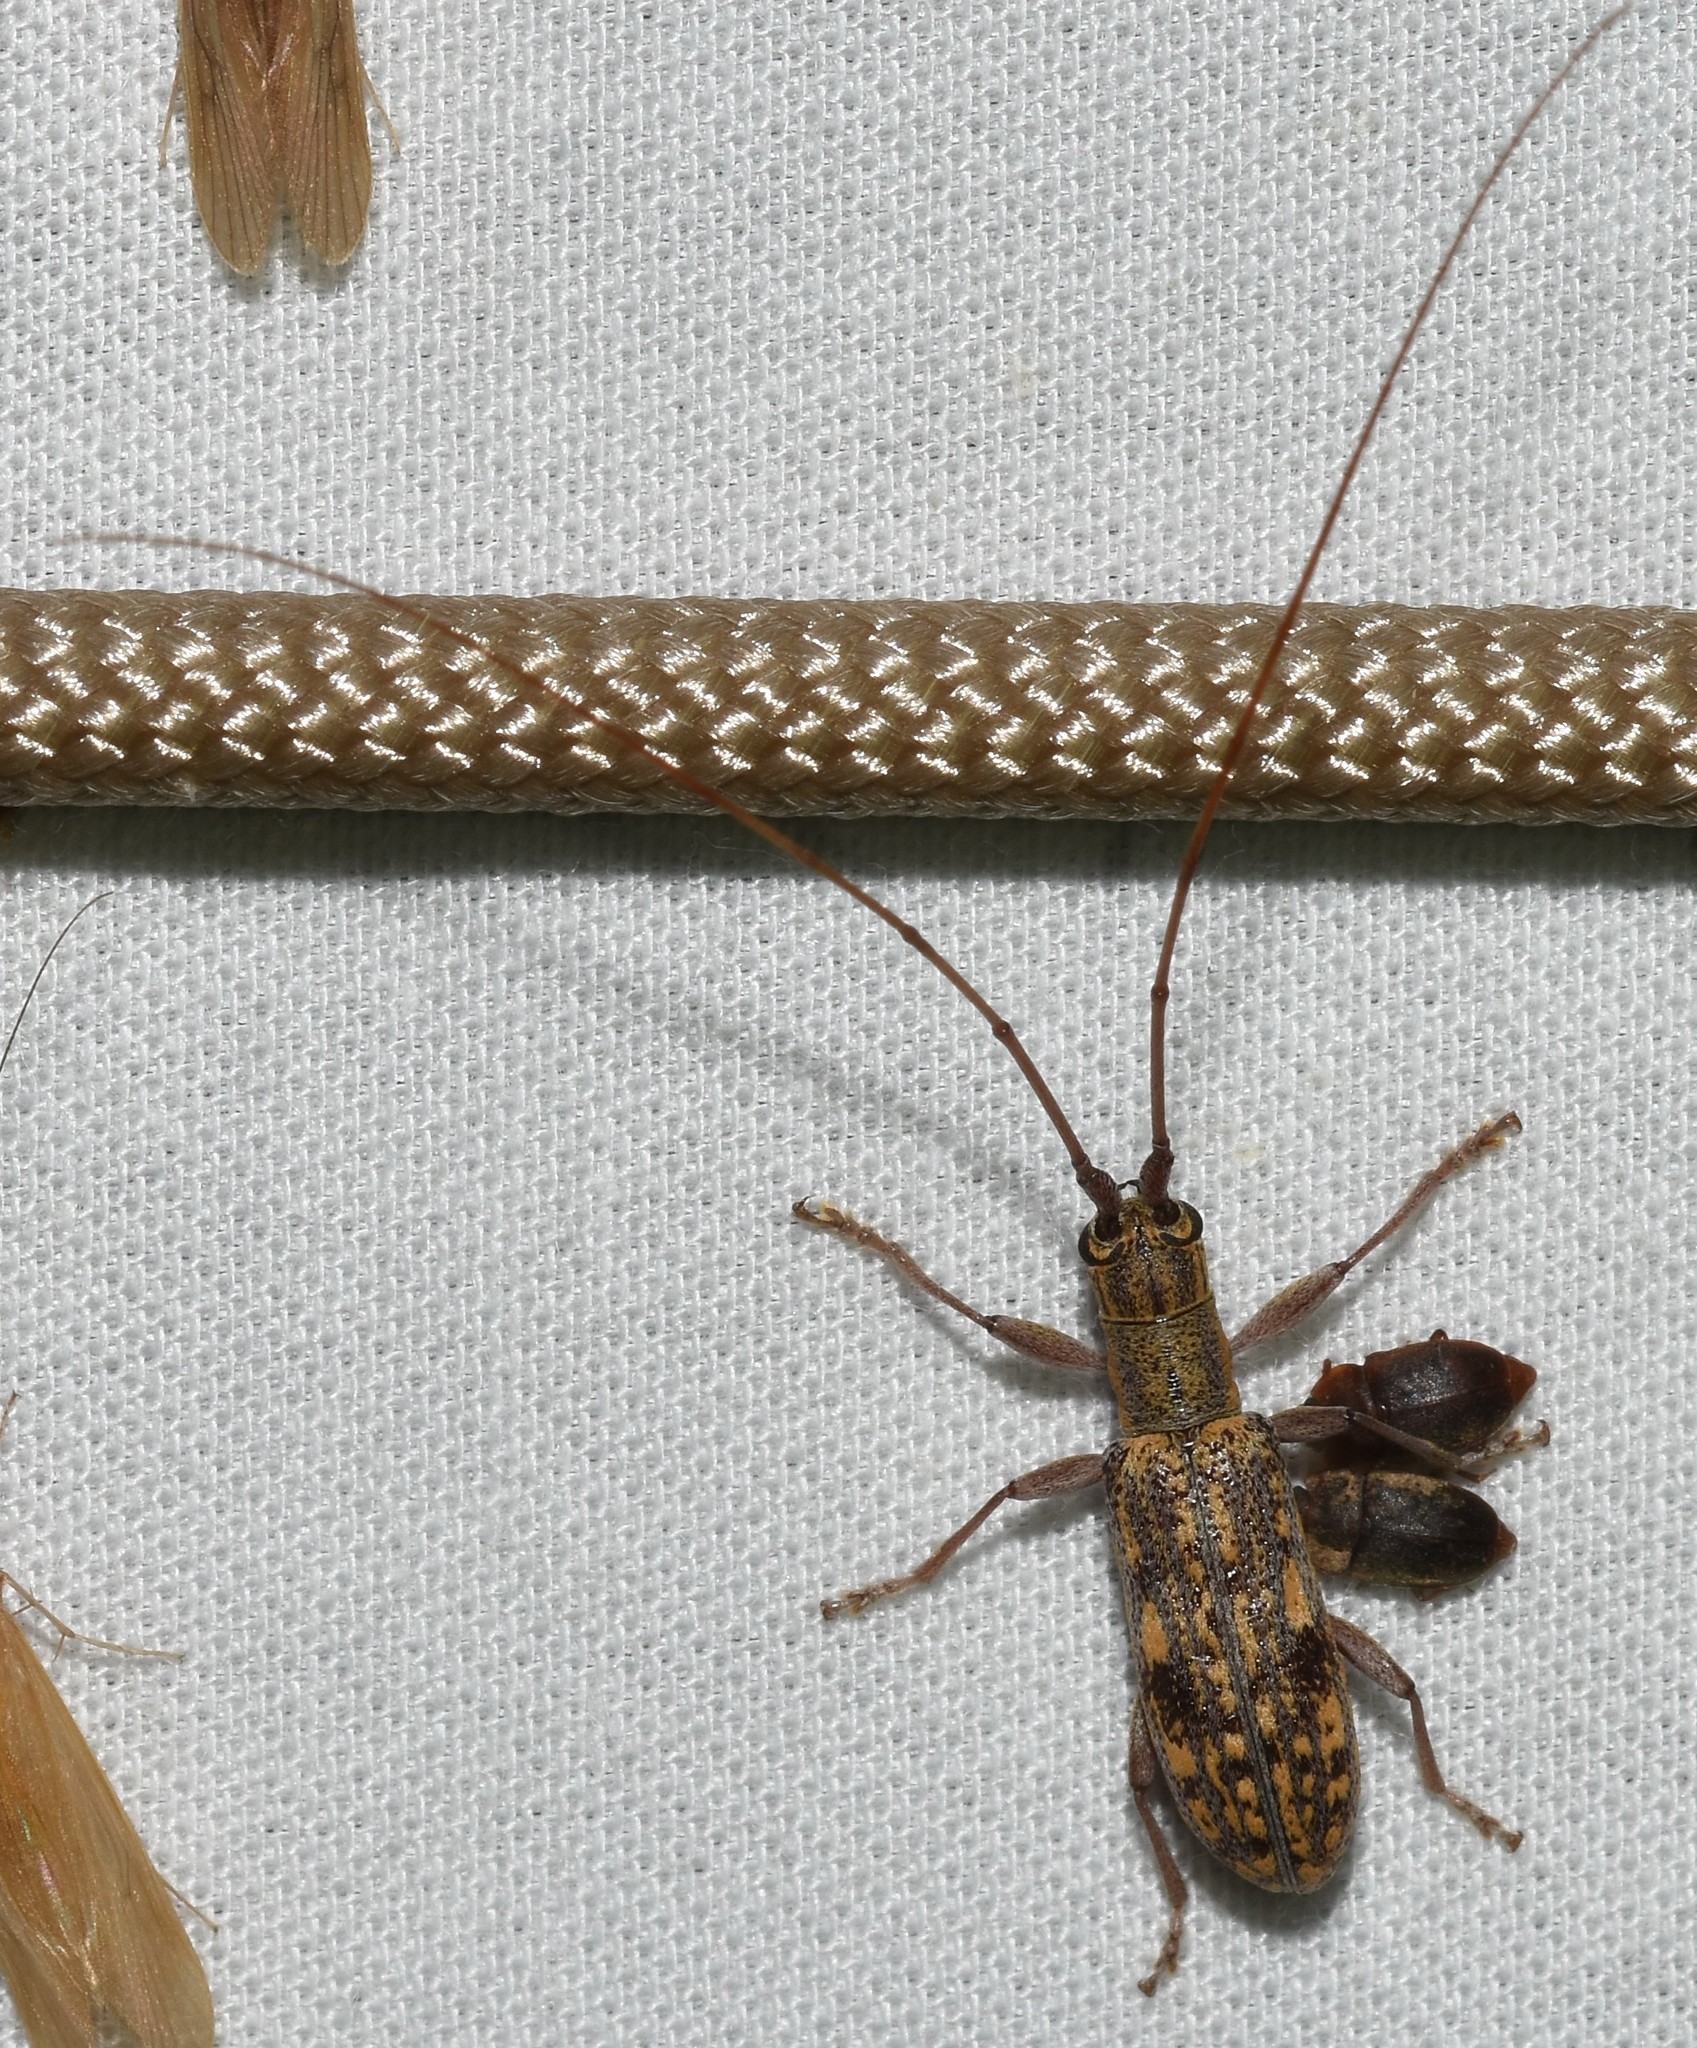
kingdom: Animalia
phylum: Arthropoda
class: Insecta
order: Coleoptera
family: Cerambycidae
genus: Dorcaschema
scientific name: Dorcaschema alternatum
